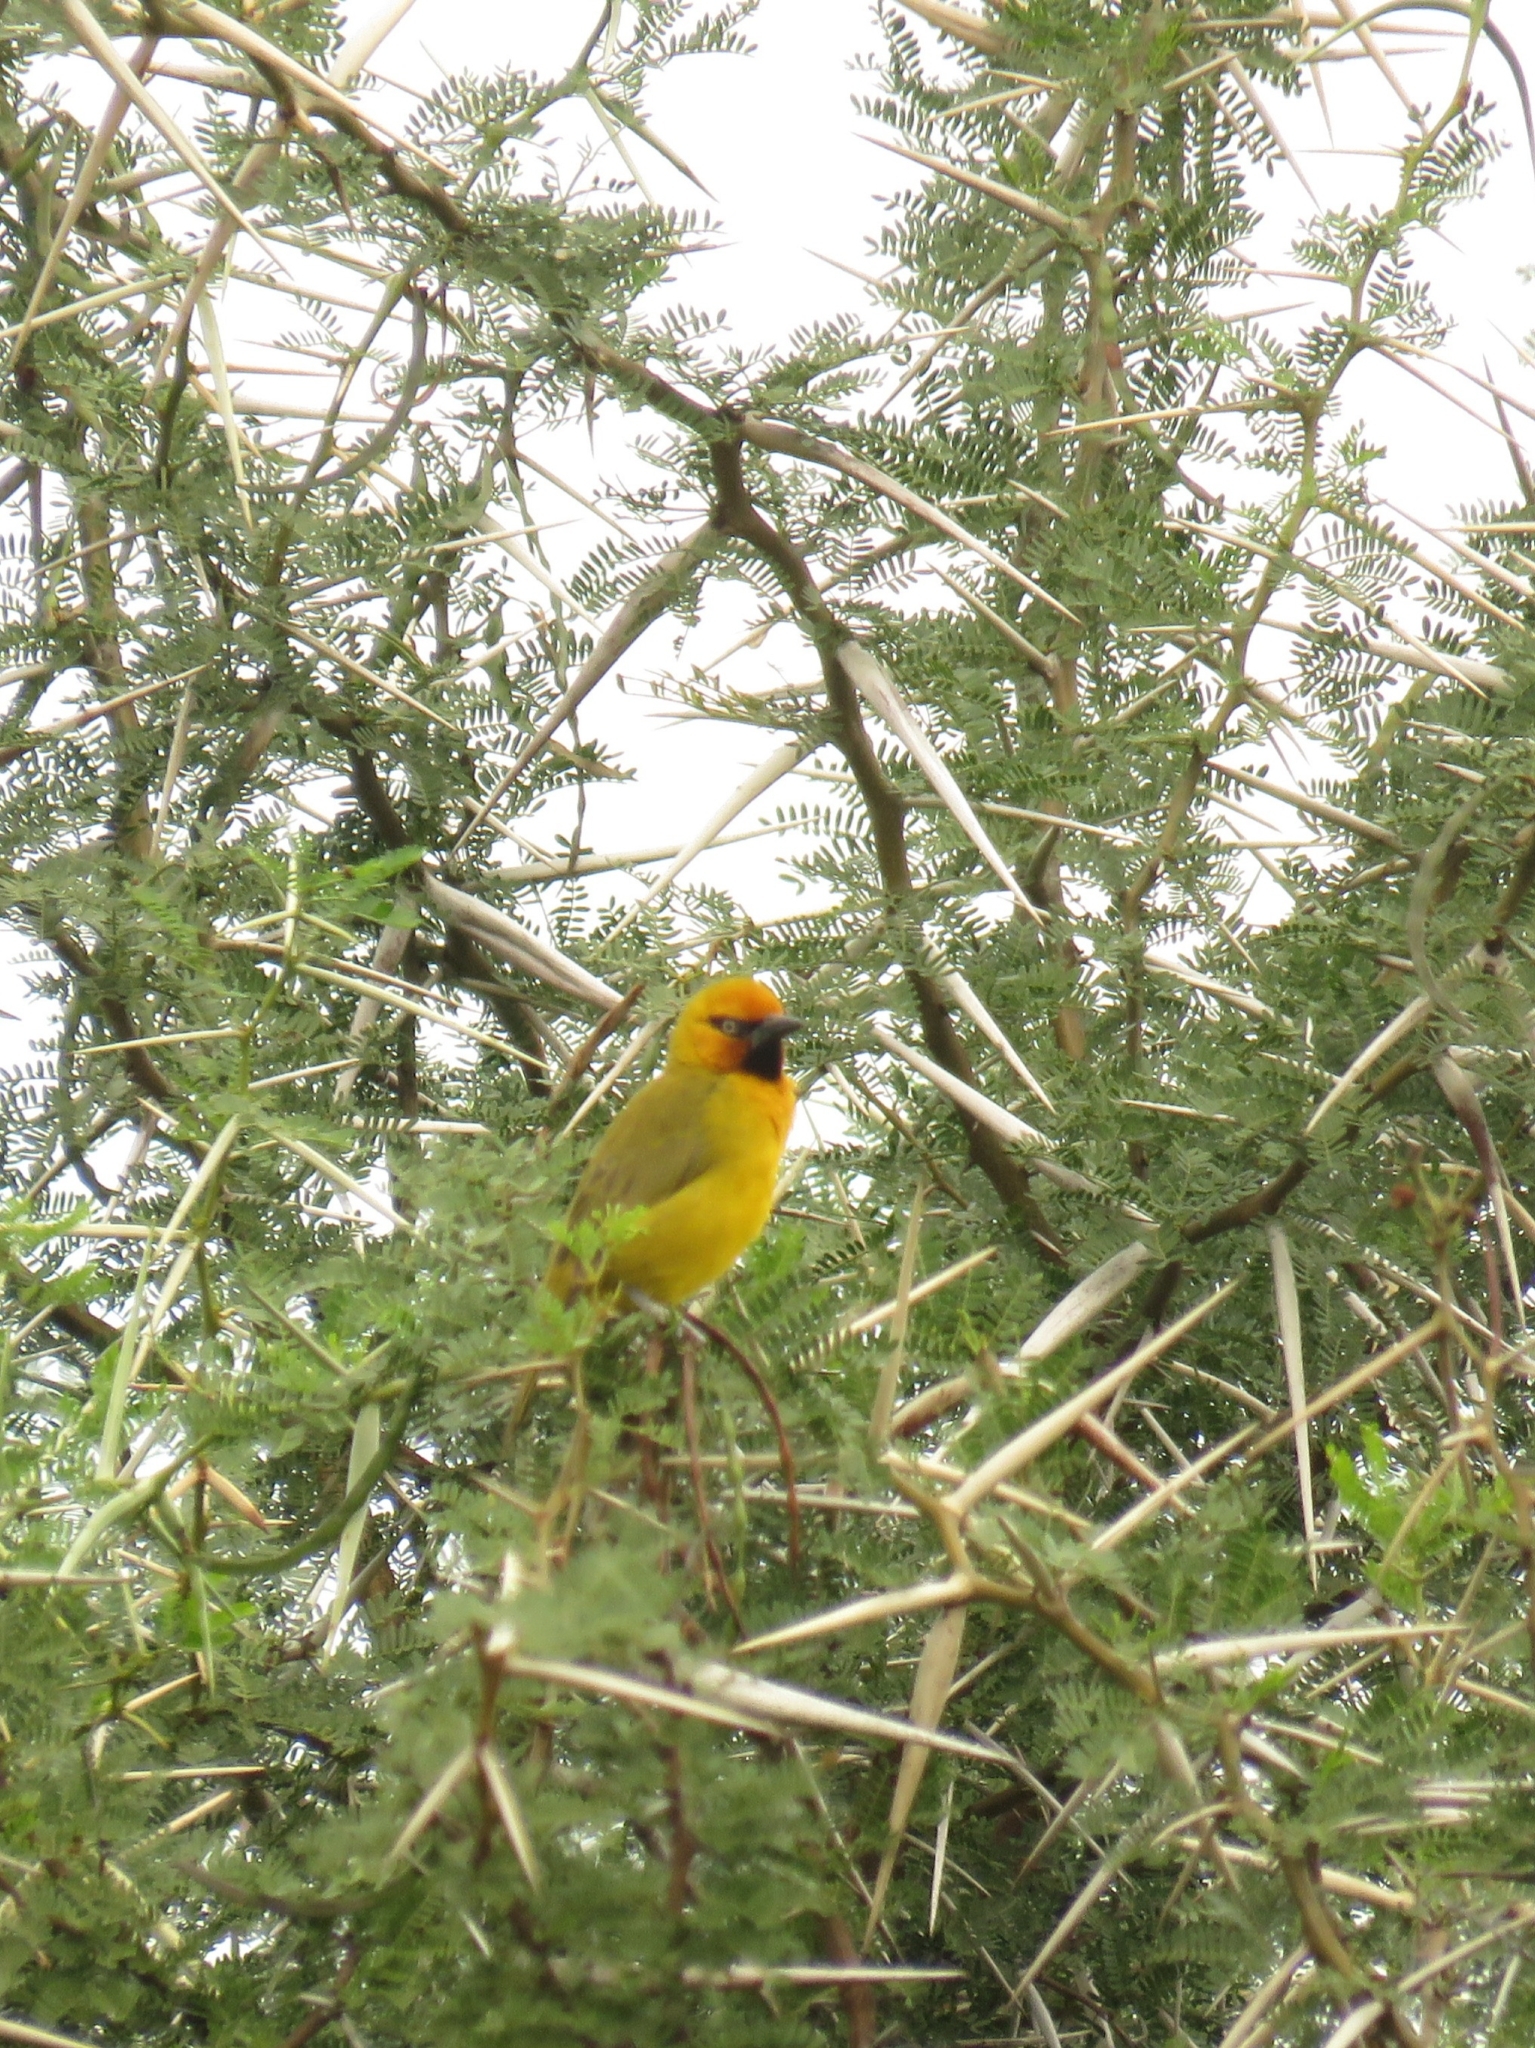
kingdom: Animalia
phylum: Chordata
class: Aves
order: Passeriformes
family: Ploceidae
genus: Ploceus
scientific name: Ploceus ocularis
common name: Spectacled weaver
